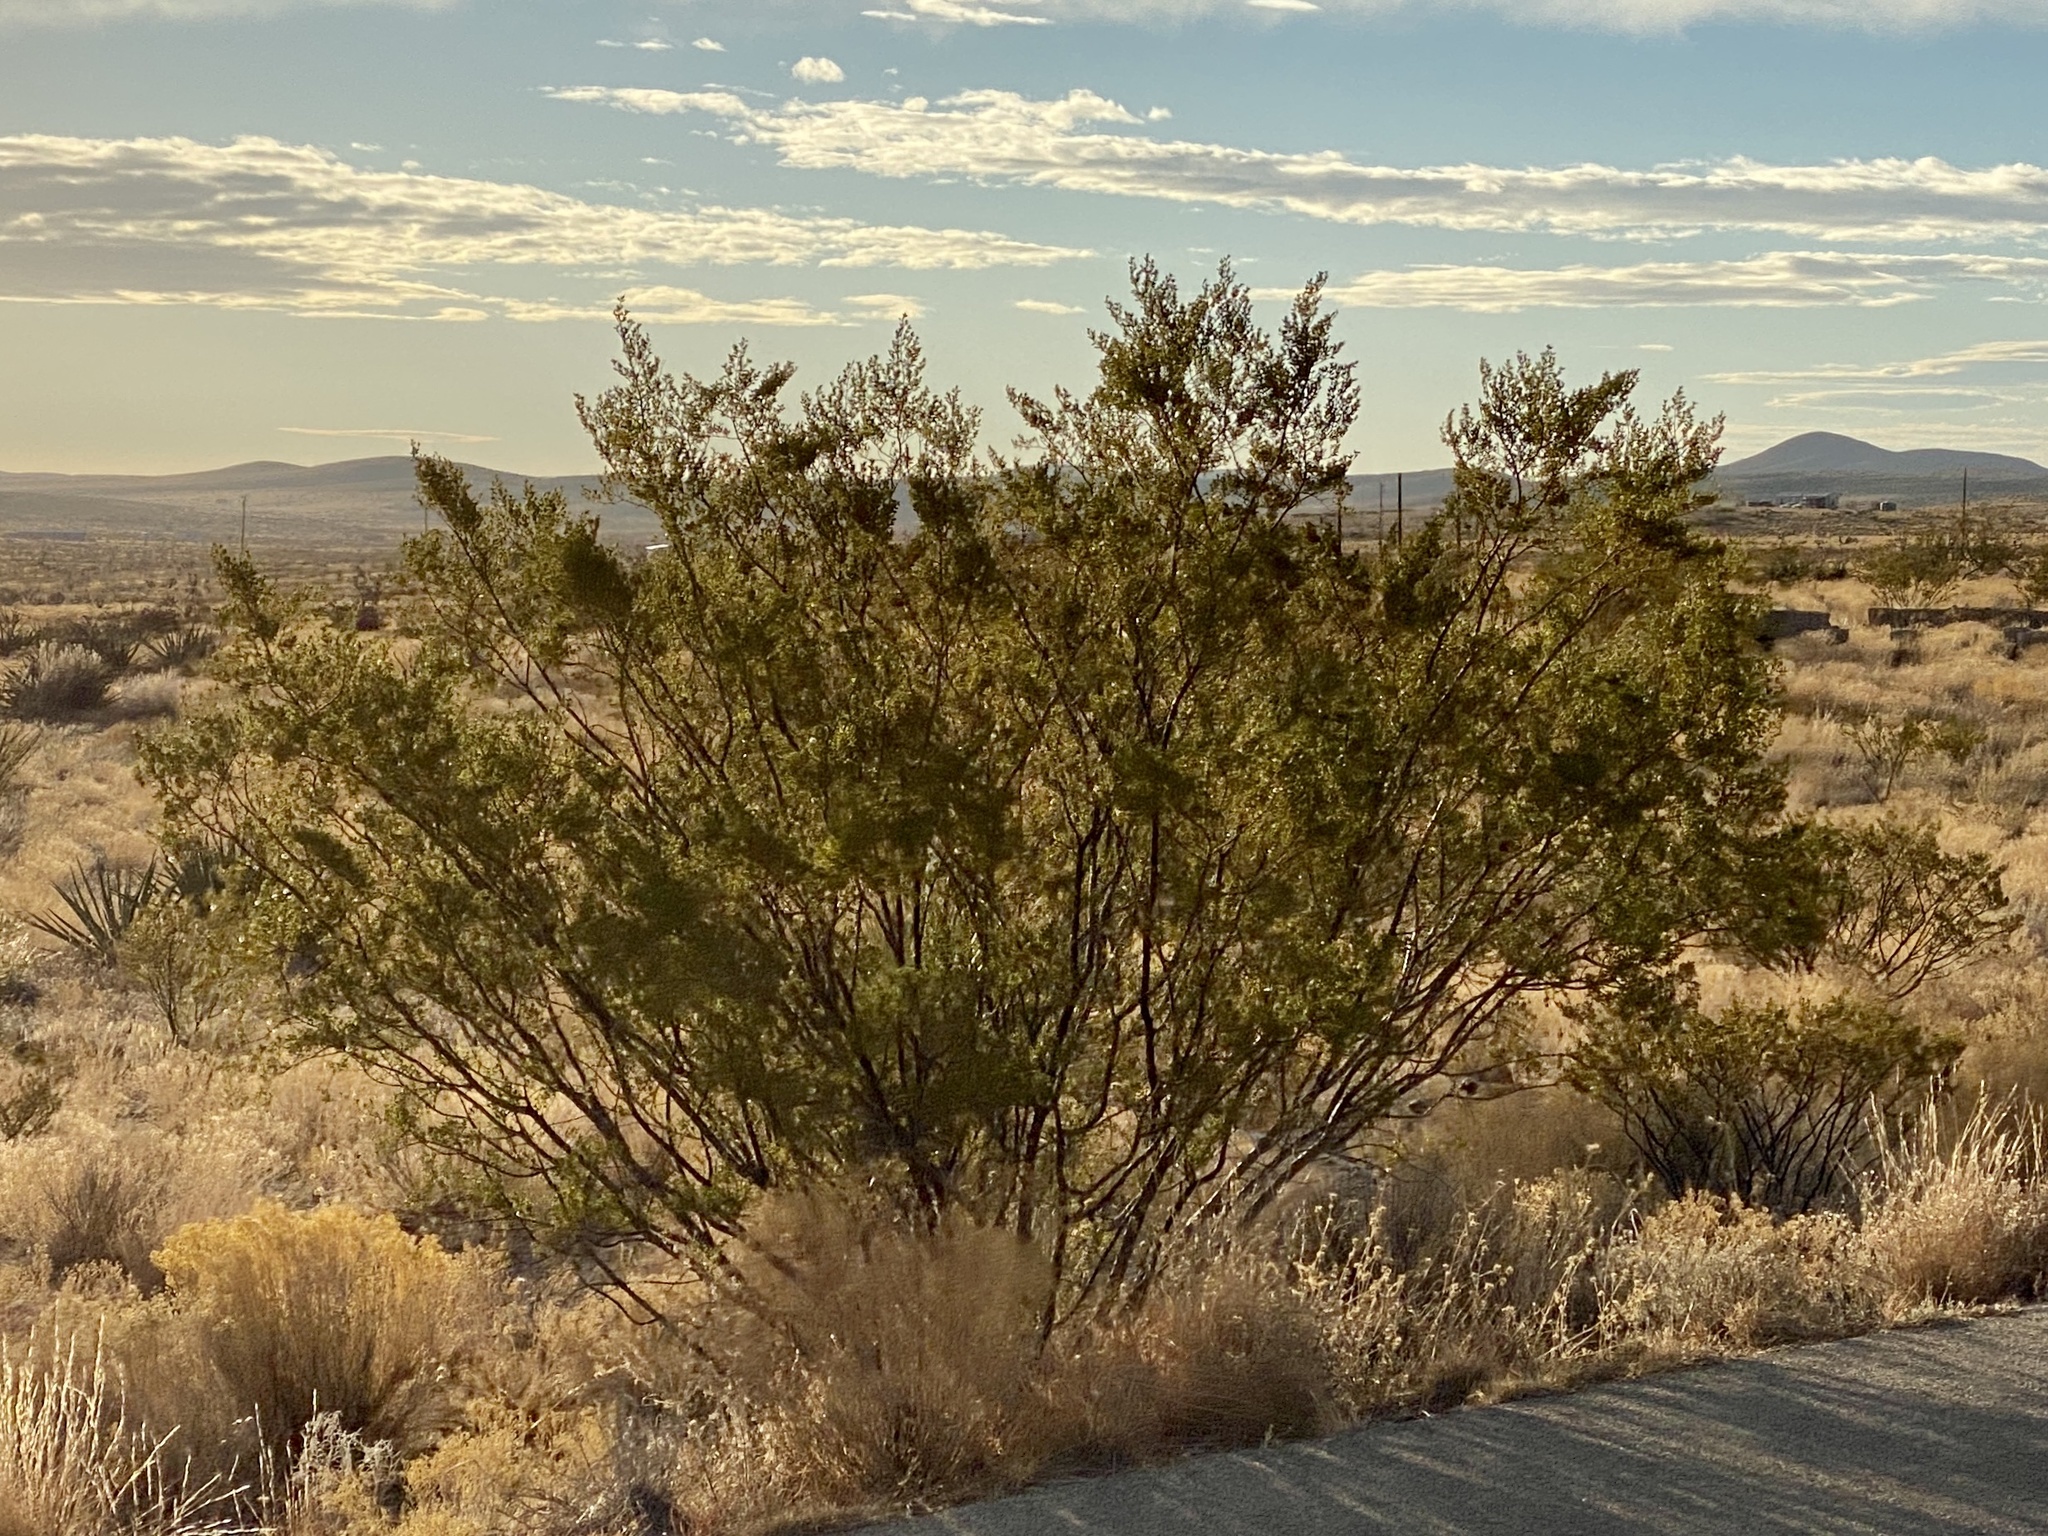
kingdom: Plantae
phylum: Tracheophyta
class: Magnoliopsida
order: Zygophyllales
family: Zygophyllaceae
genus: Larrea
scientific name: Larrea tridentata
